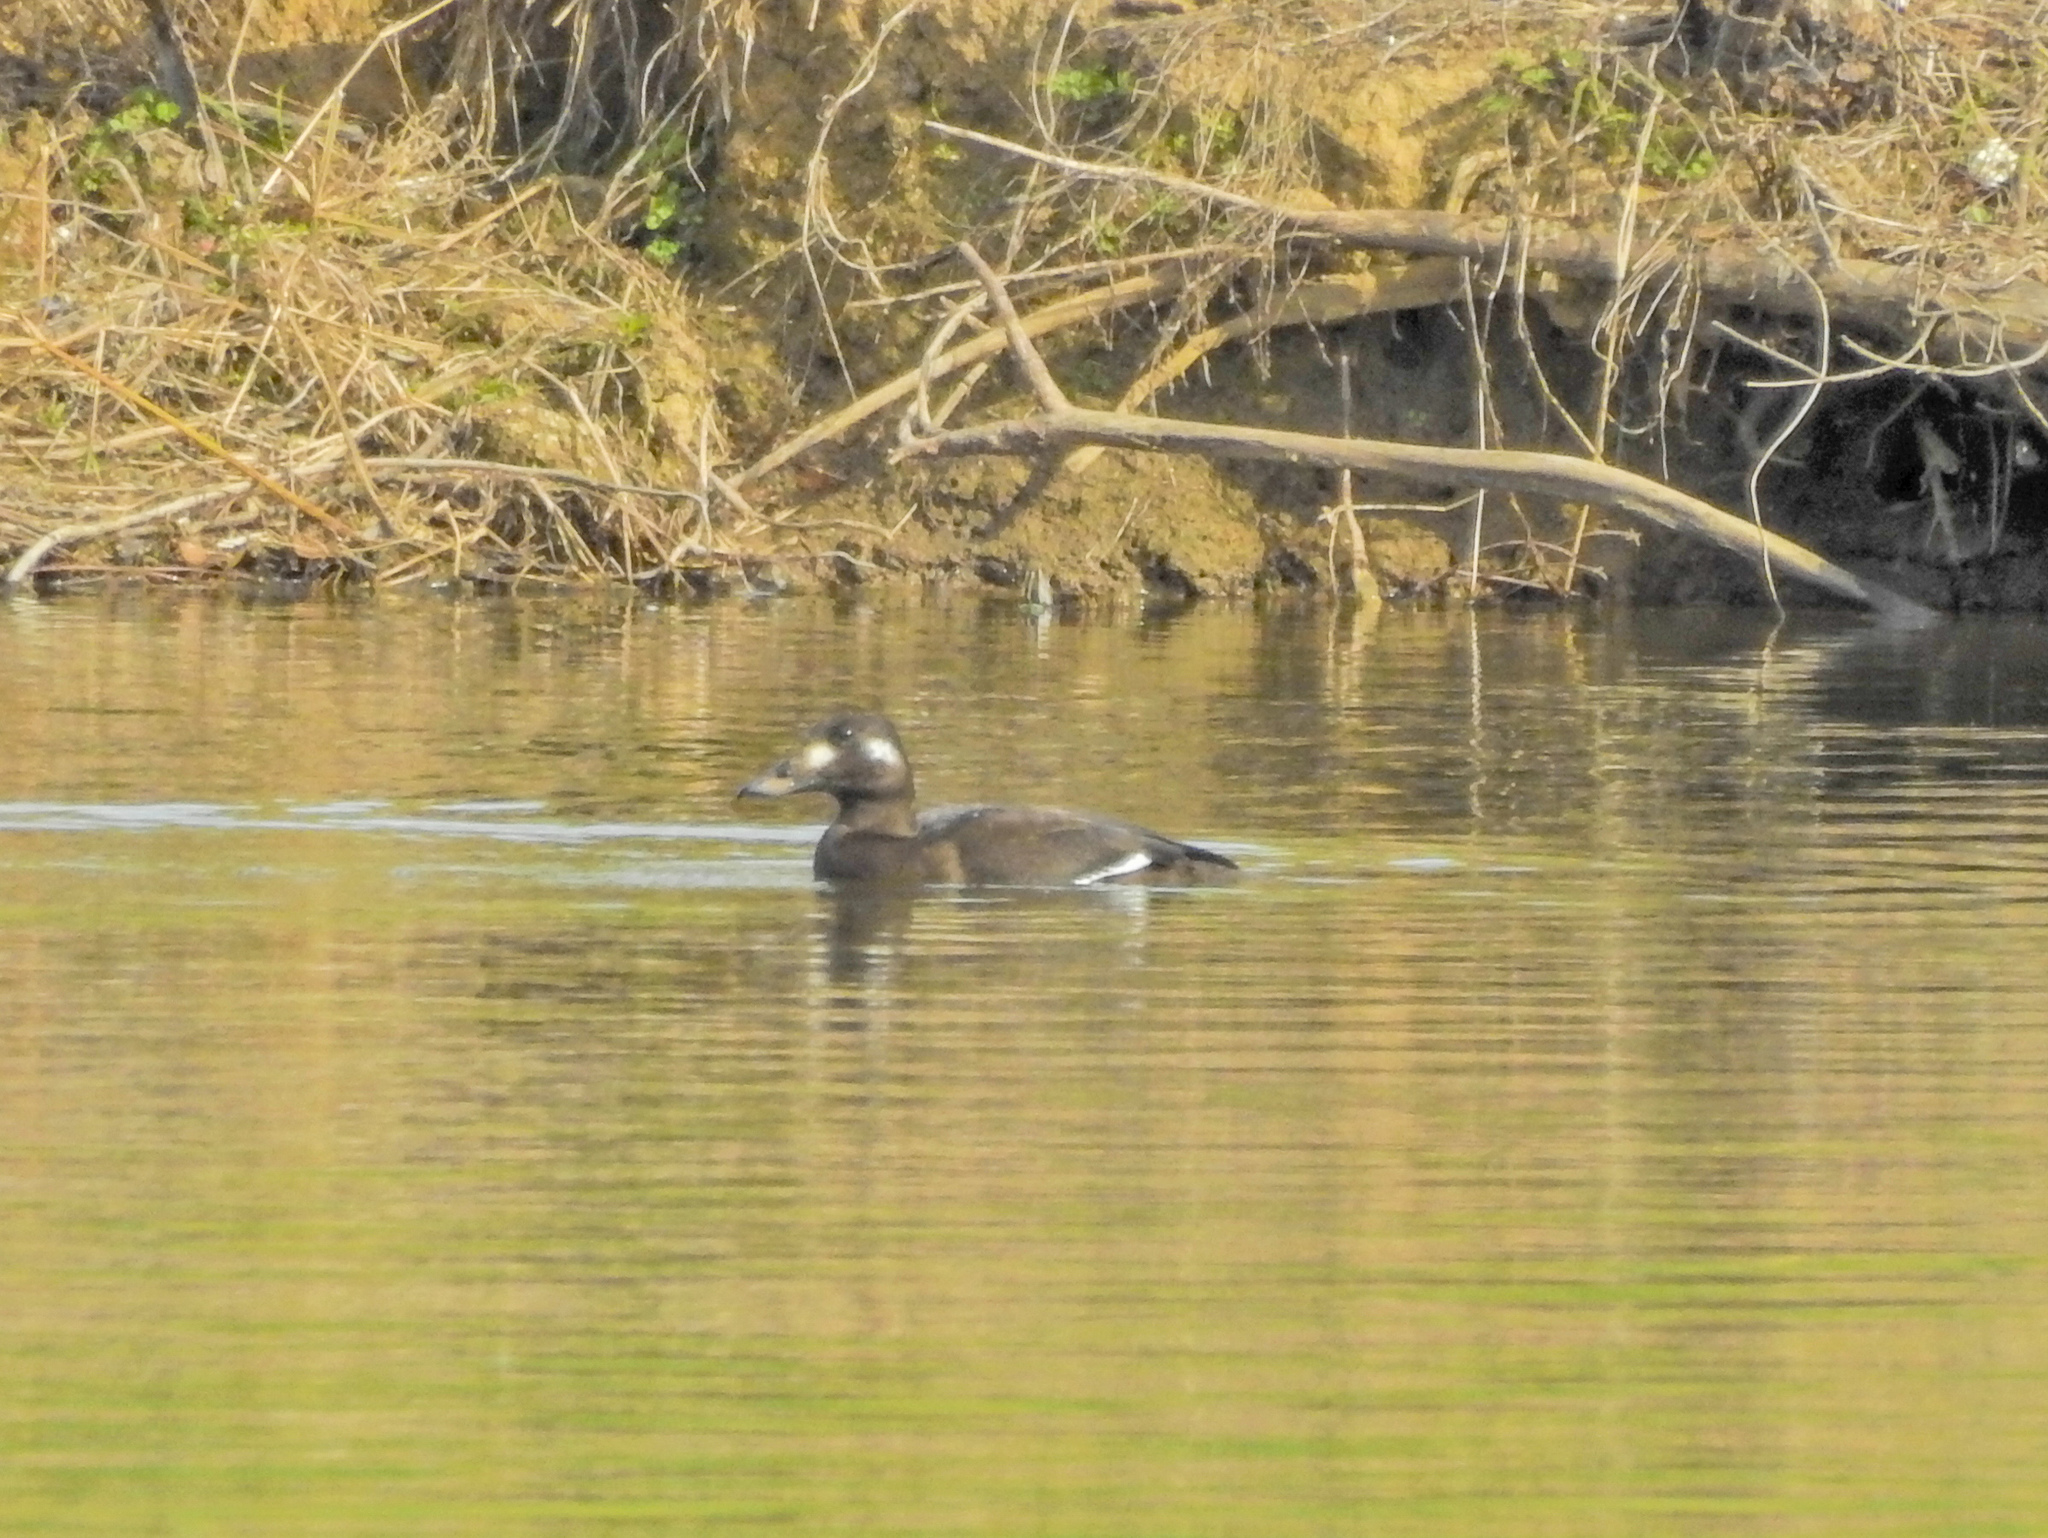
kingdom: Animalia
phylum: Chordata
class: Aves
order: Anseriformes
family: Anatidae
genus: Melanitta
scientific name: Melanitta deglandi
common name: White-winged scoter
